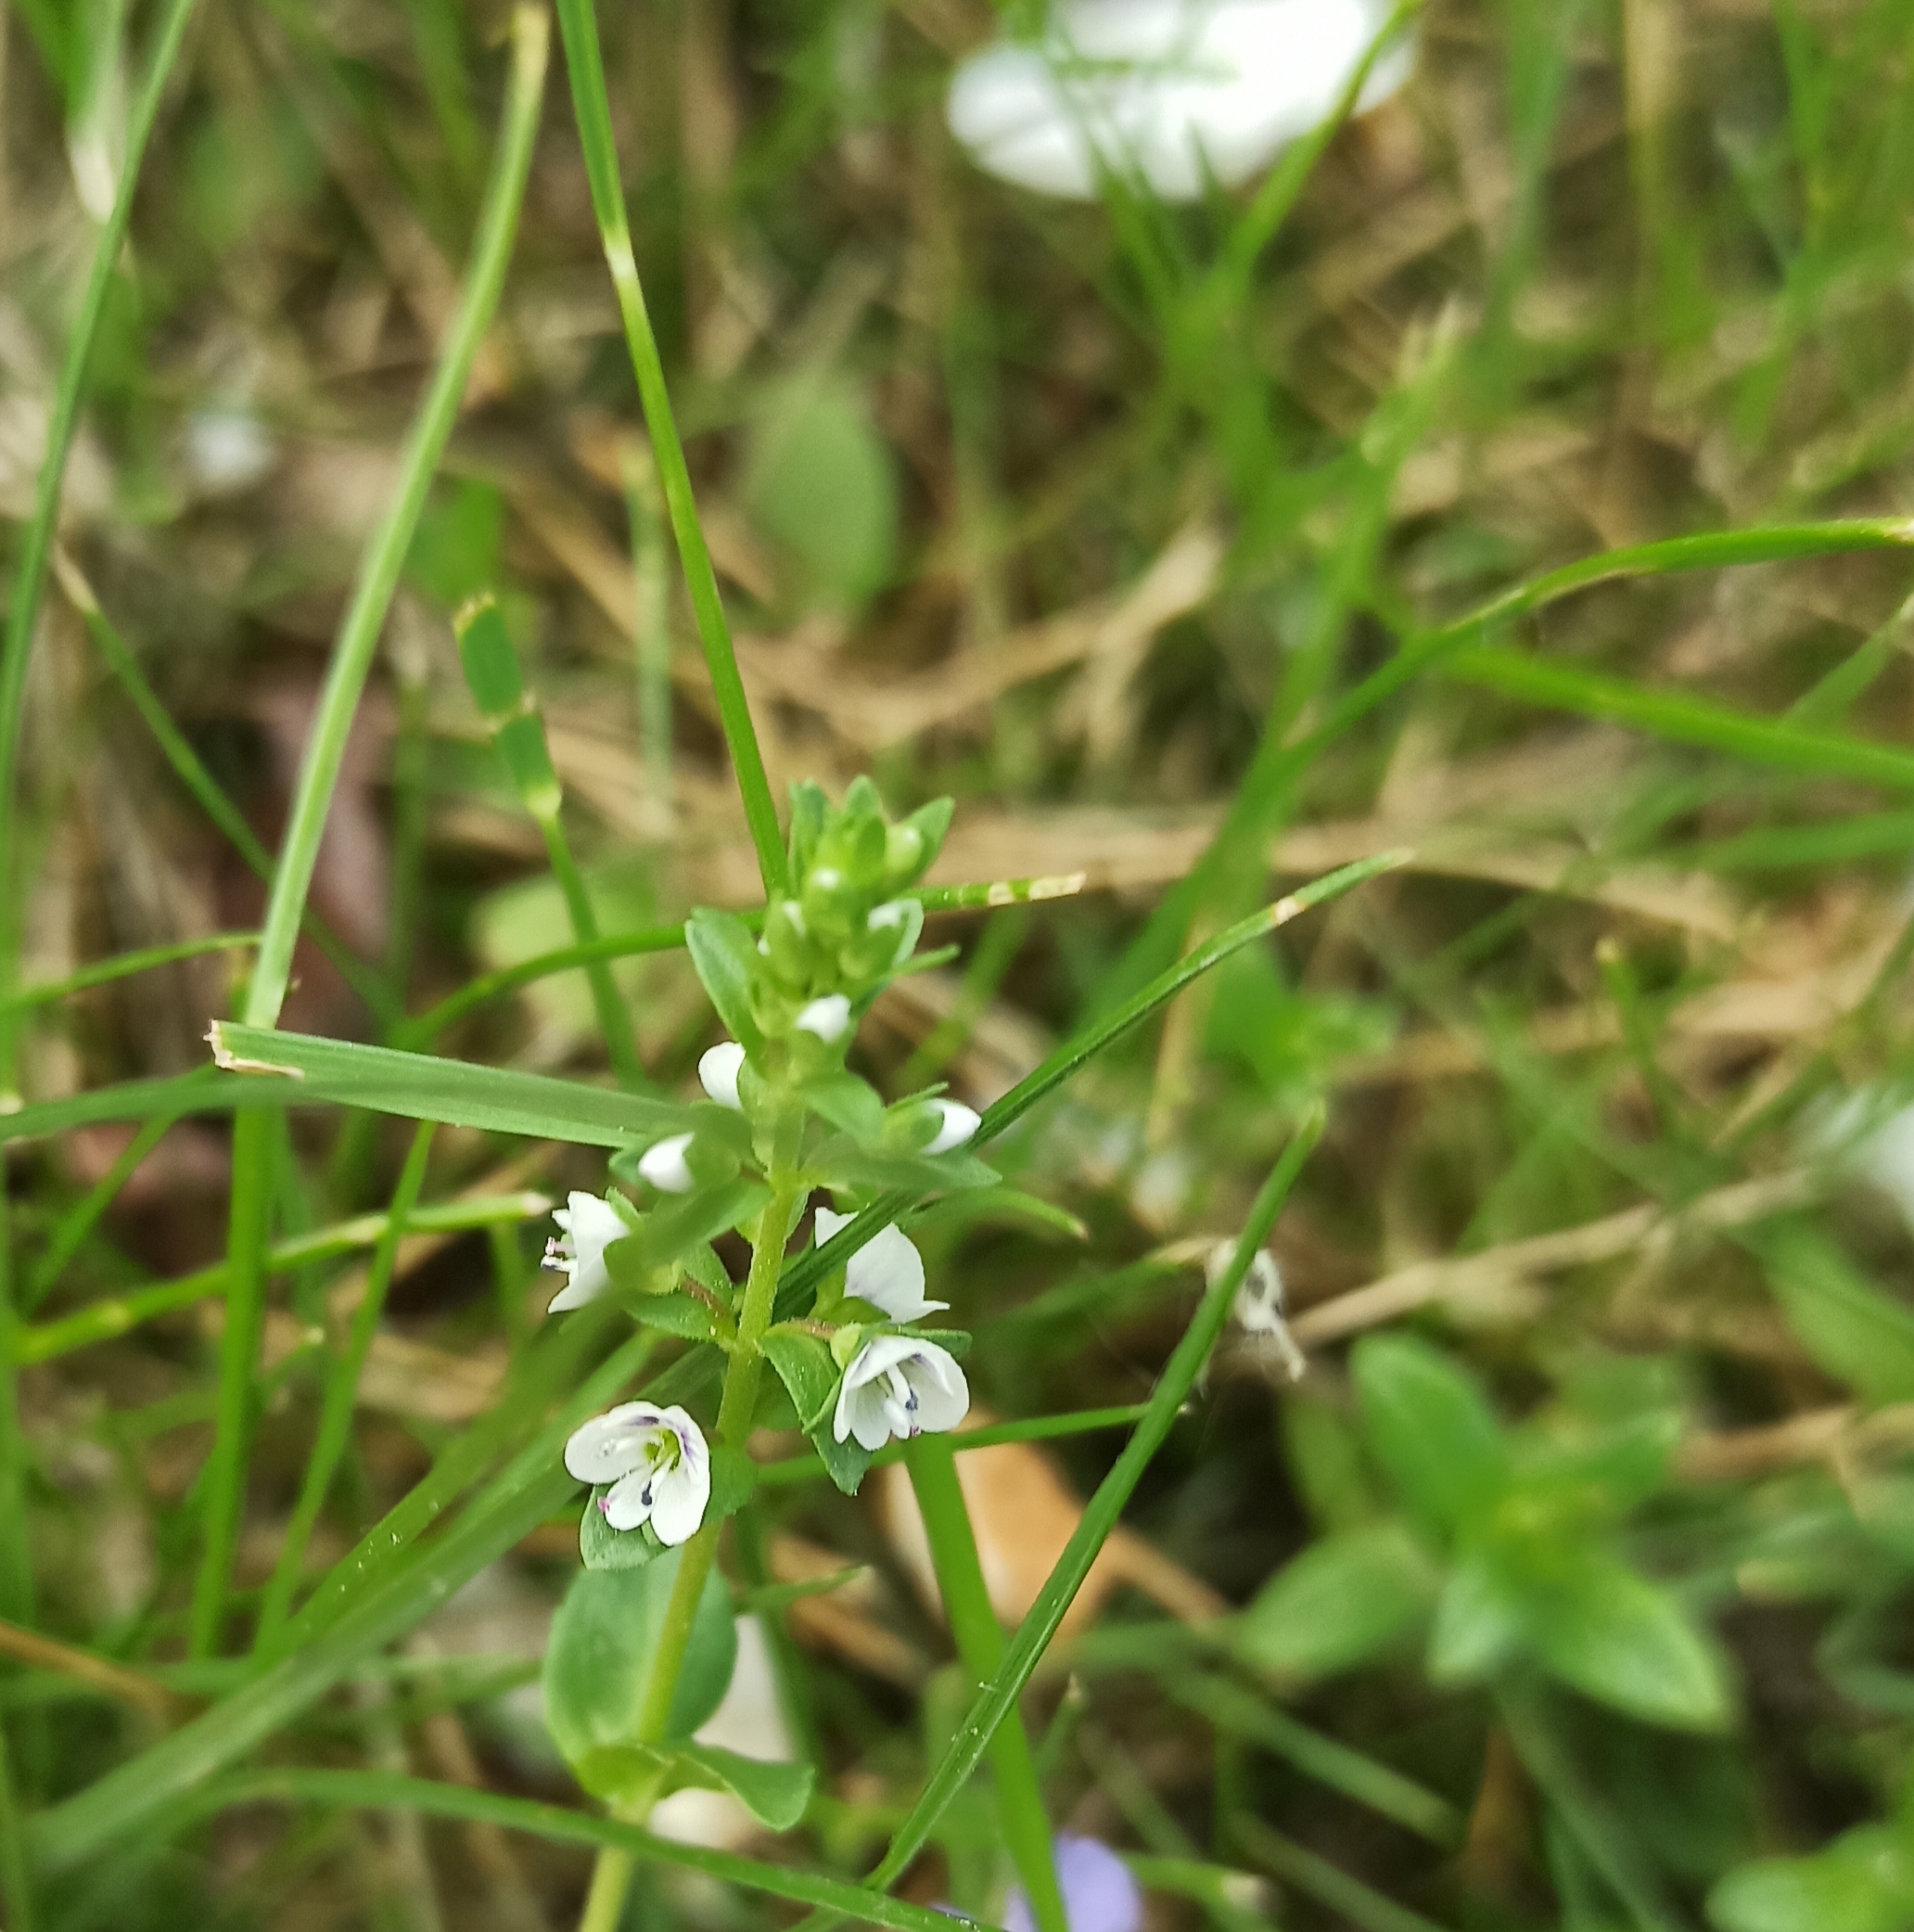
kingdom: Plantae
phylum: Tracheophyta
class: Magnoliopsida
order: Lamiales
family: Plantaginaceae
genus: Veronica
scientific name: Veronica serpyllifolia
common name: Thyme-leaved speedwell
